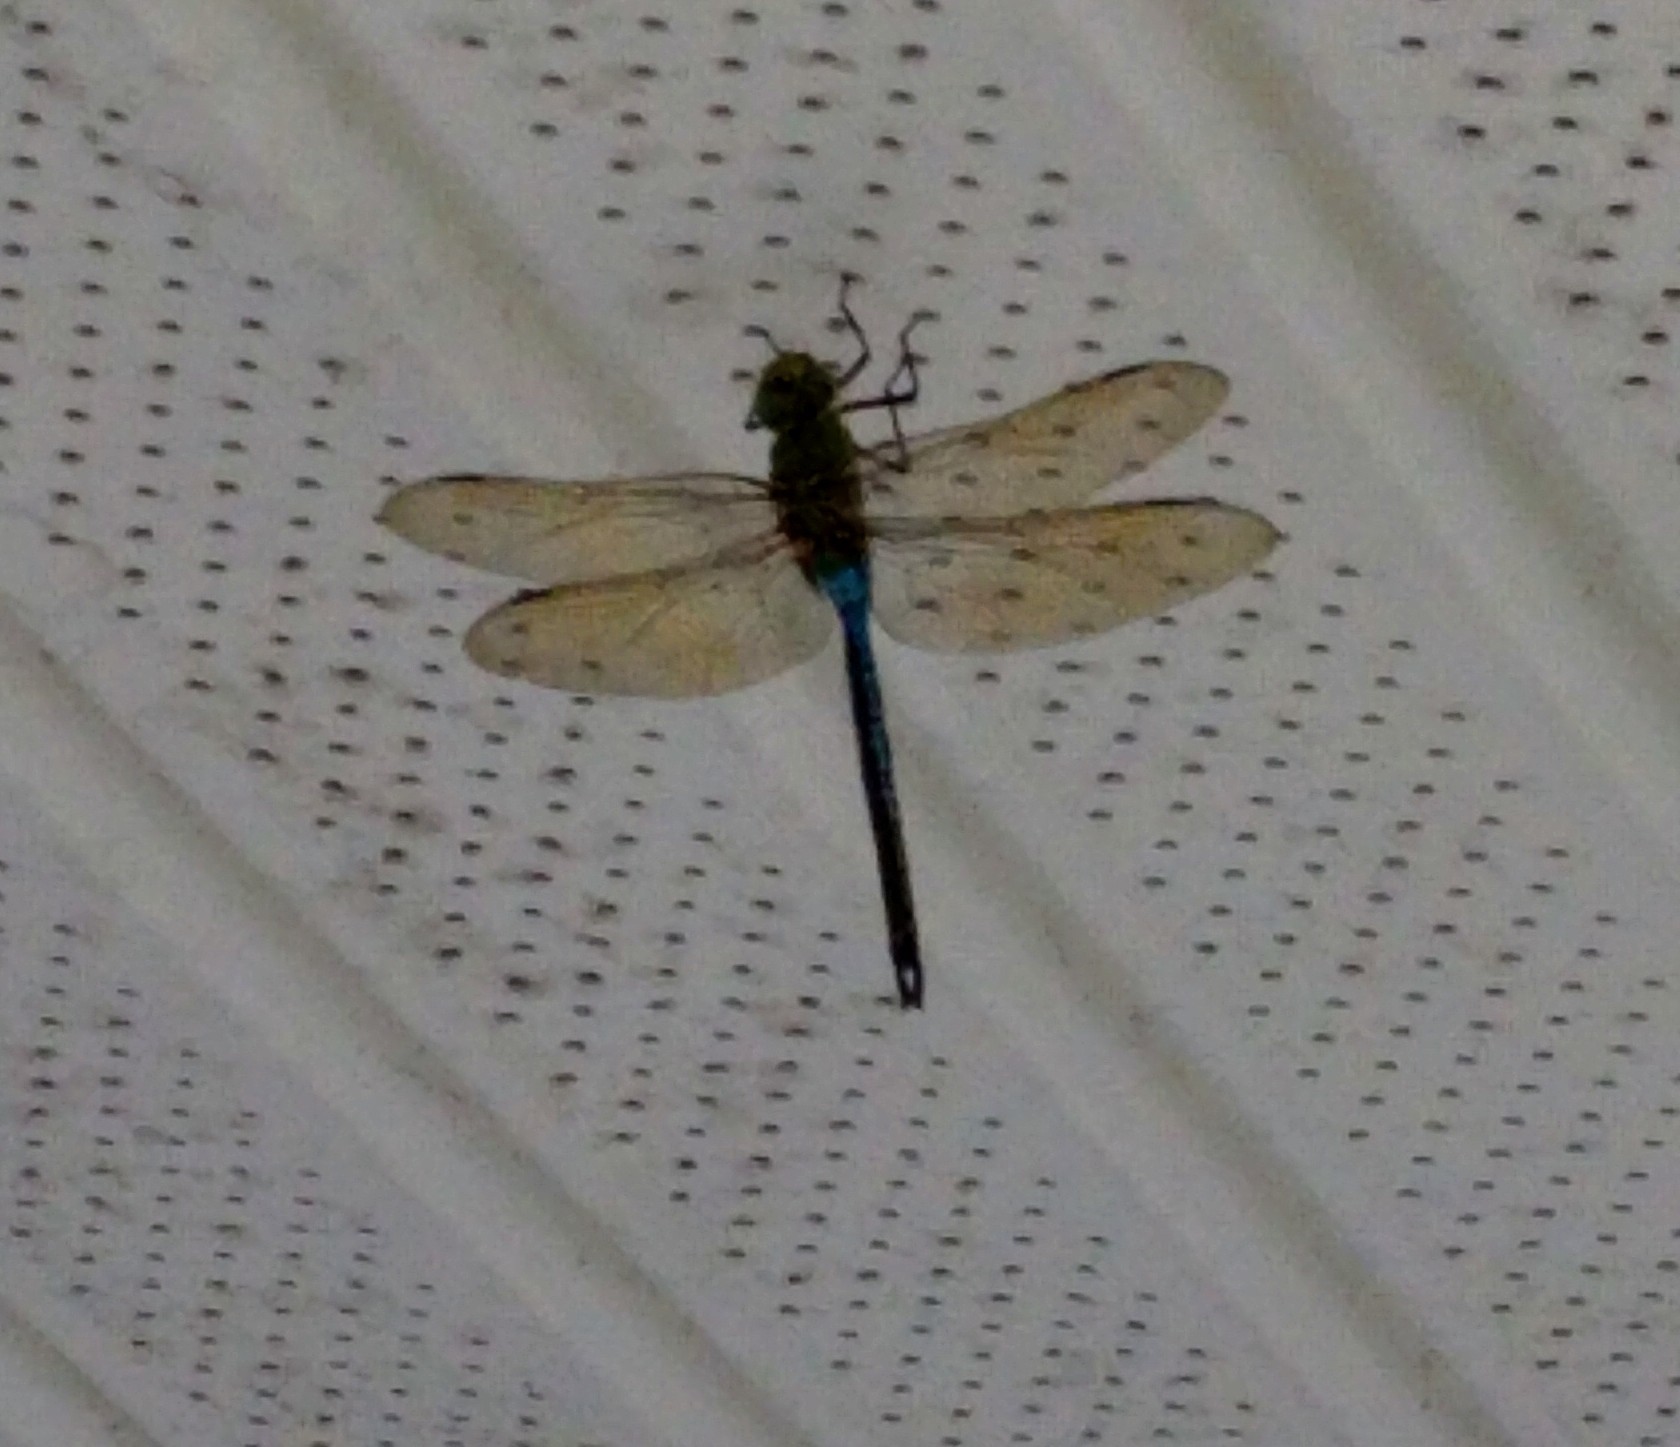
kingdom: Animalia
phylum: Arthropoda
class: Insecta
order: Odonata
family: Aeshnidae
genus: Anax
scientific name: Anax junius
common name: Common green darner
